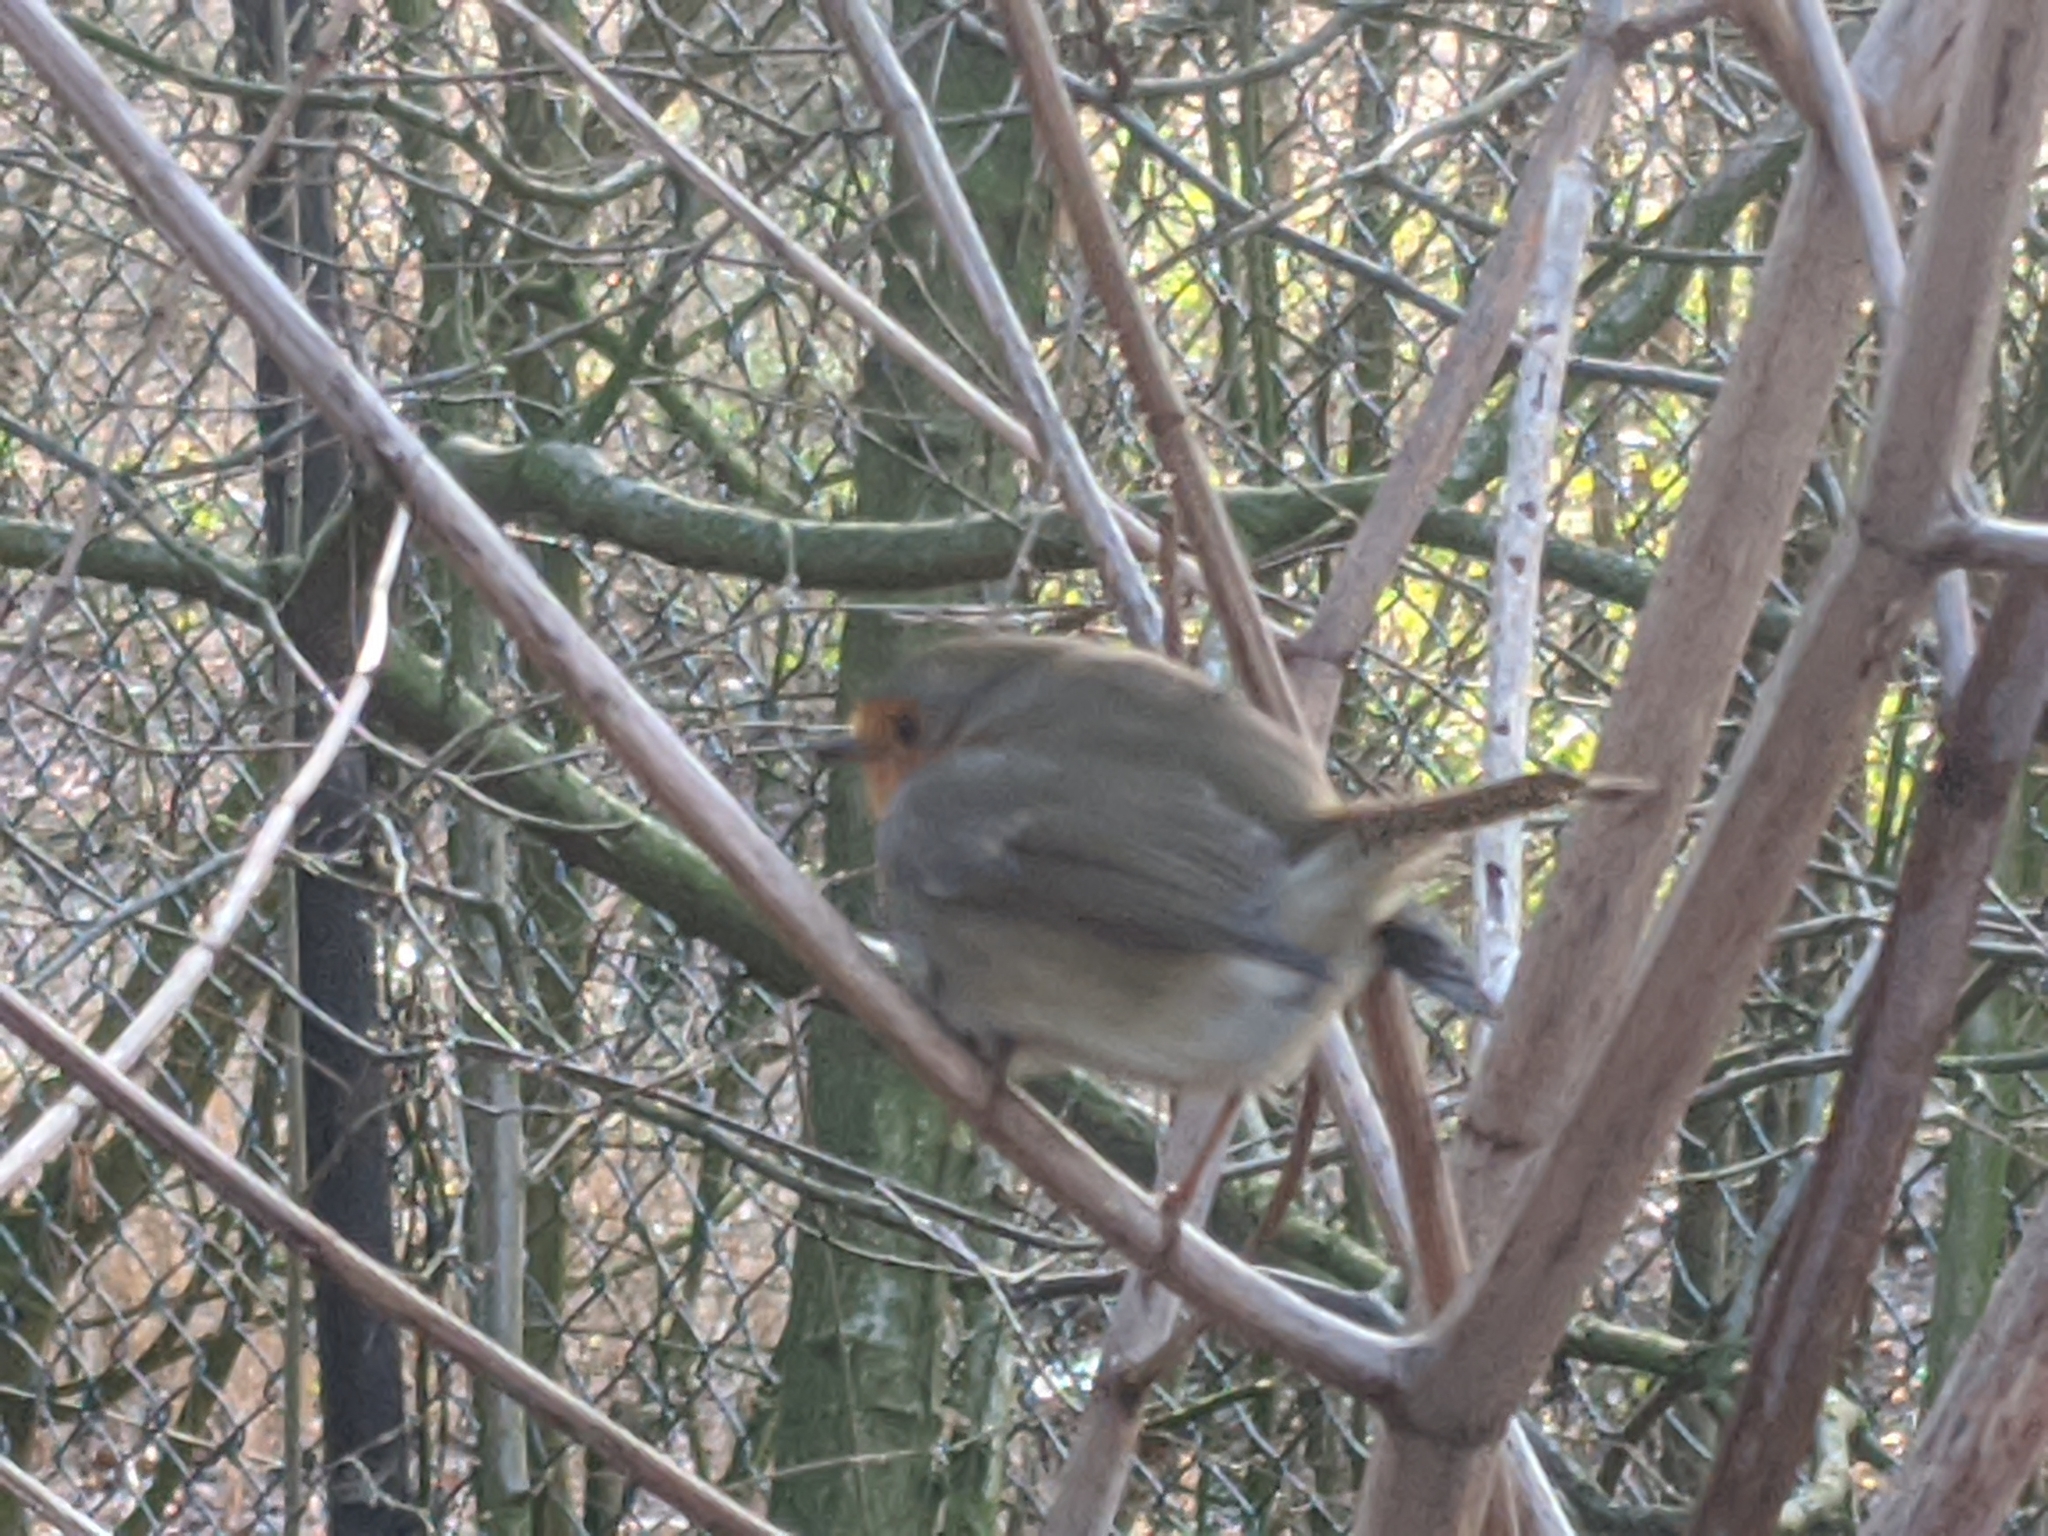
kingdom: Animalia
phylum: Chordata
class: Aves
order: Passeriformes
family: Muscicapidae
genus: Erithacus
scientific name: Erithacus rubecula
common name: European robin
